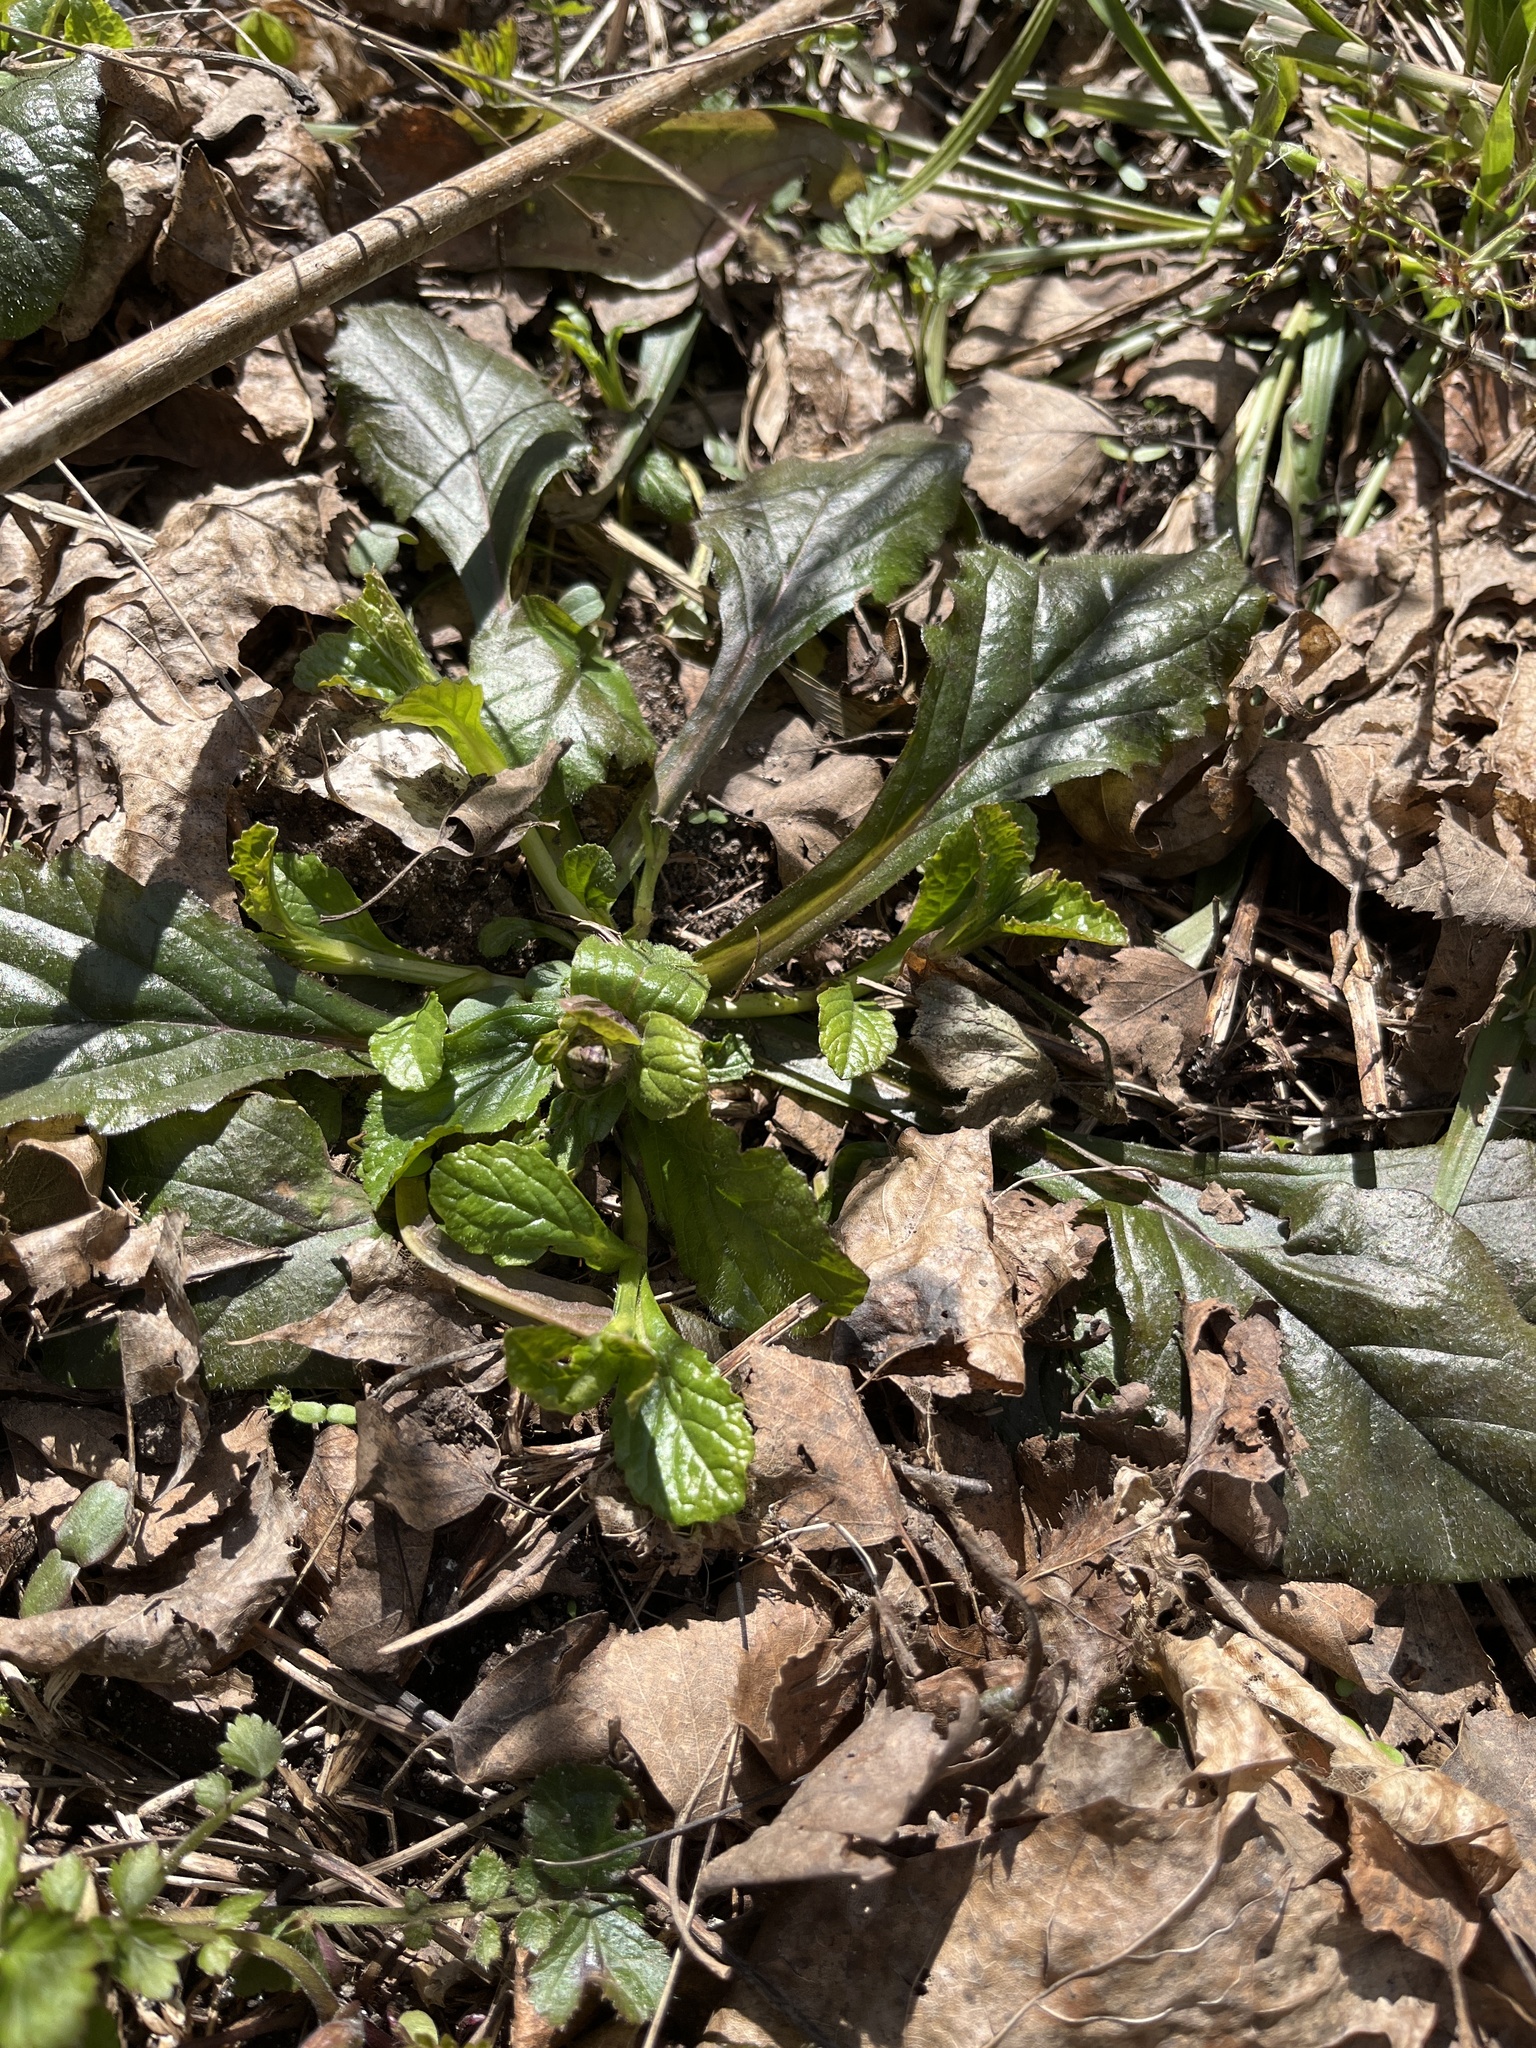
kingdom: Plantae
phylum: Tracheophyta
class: Magnoliopsida
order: Lamiales
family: Lamiaceae
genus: Ajuga
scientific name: Ajuga reptans
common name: Bugle
